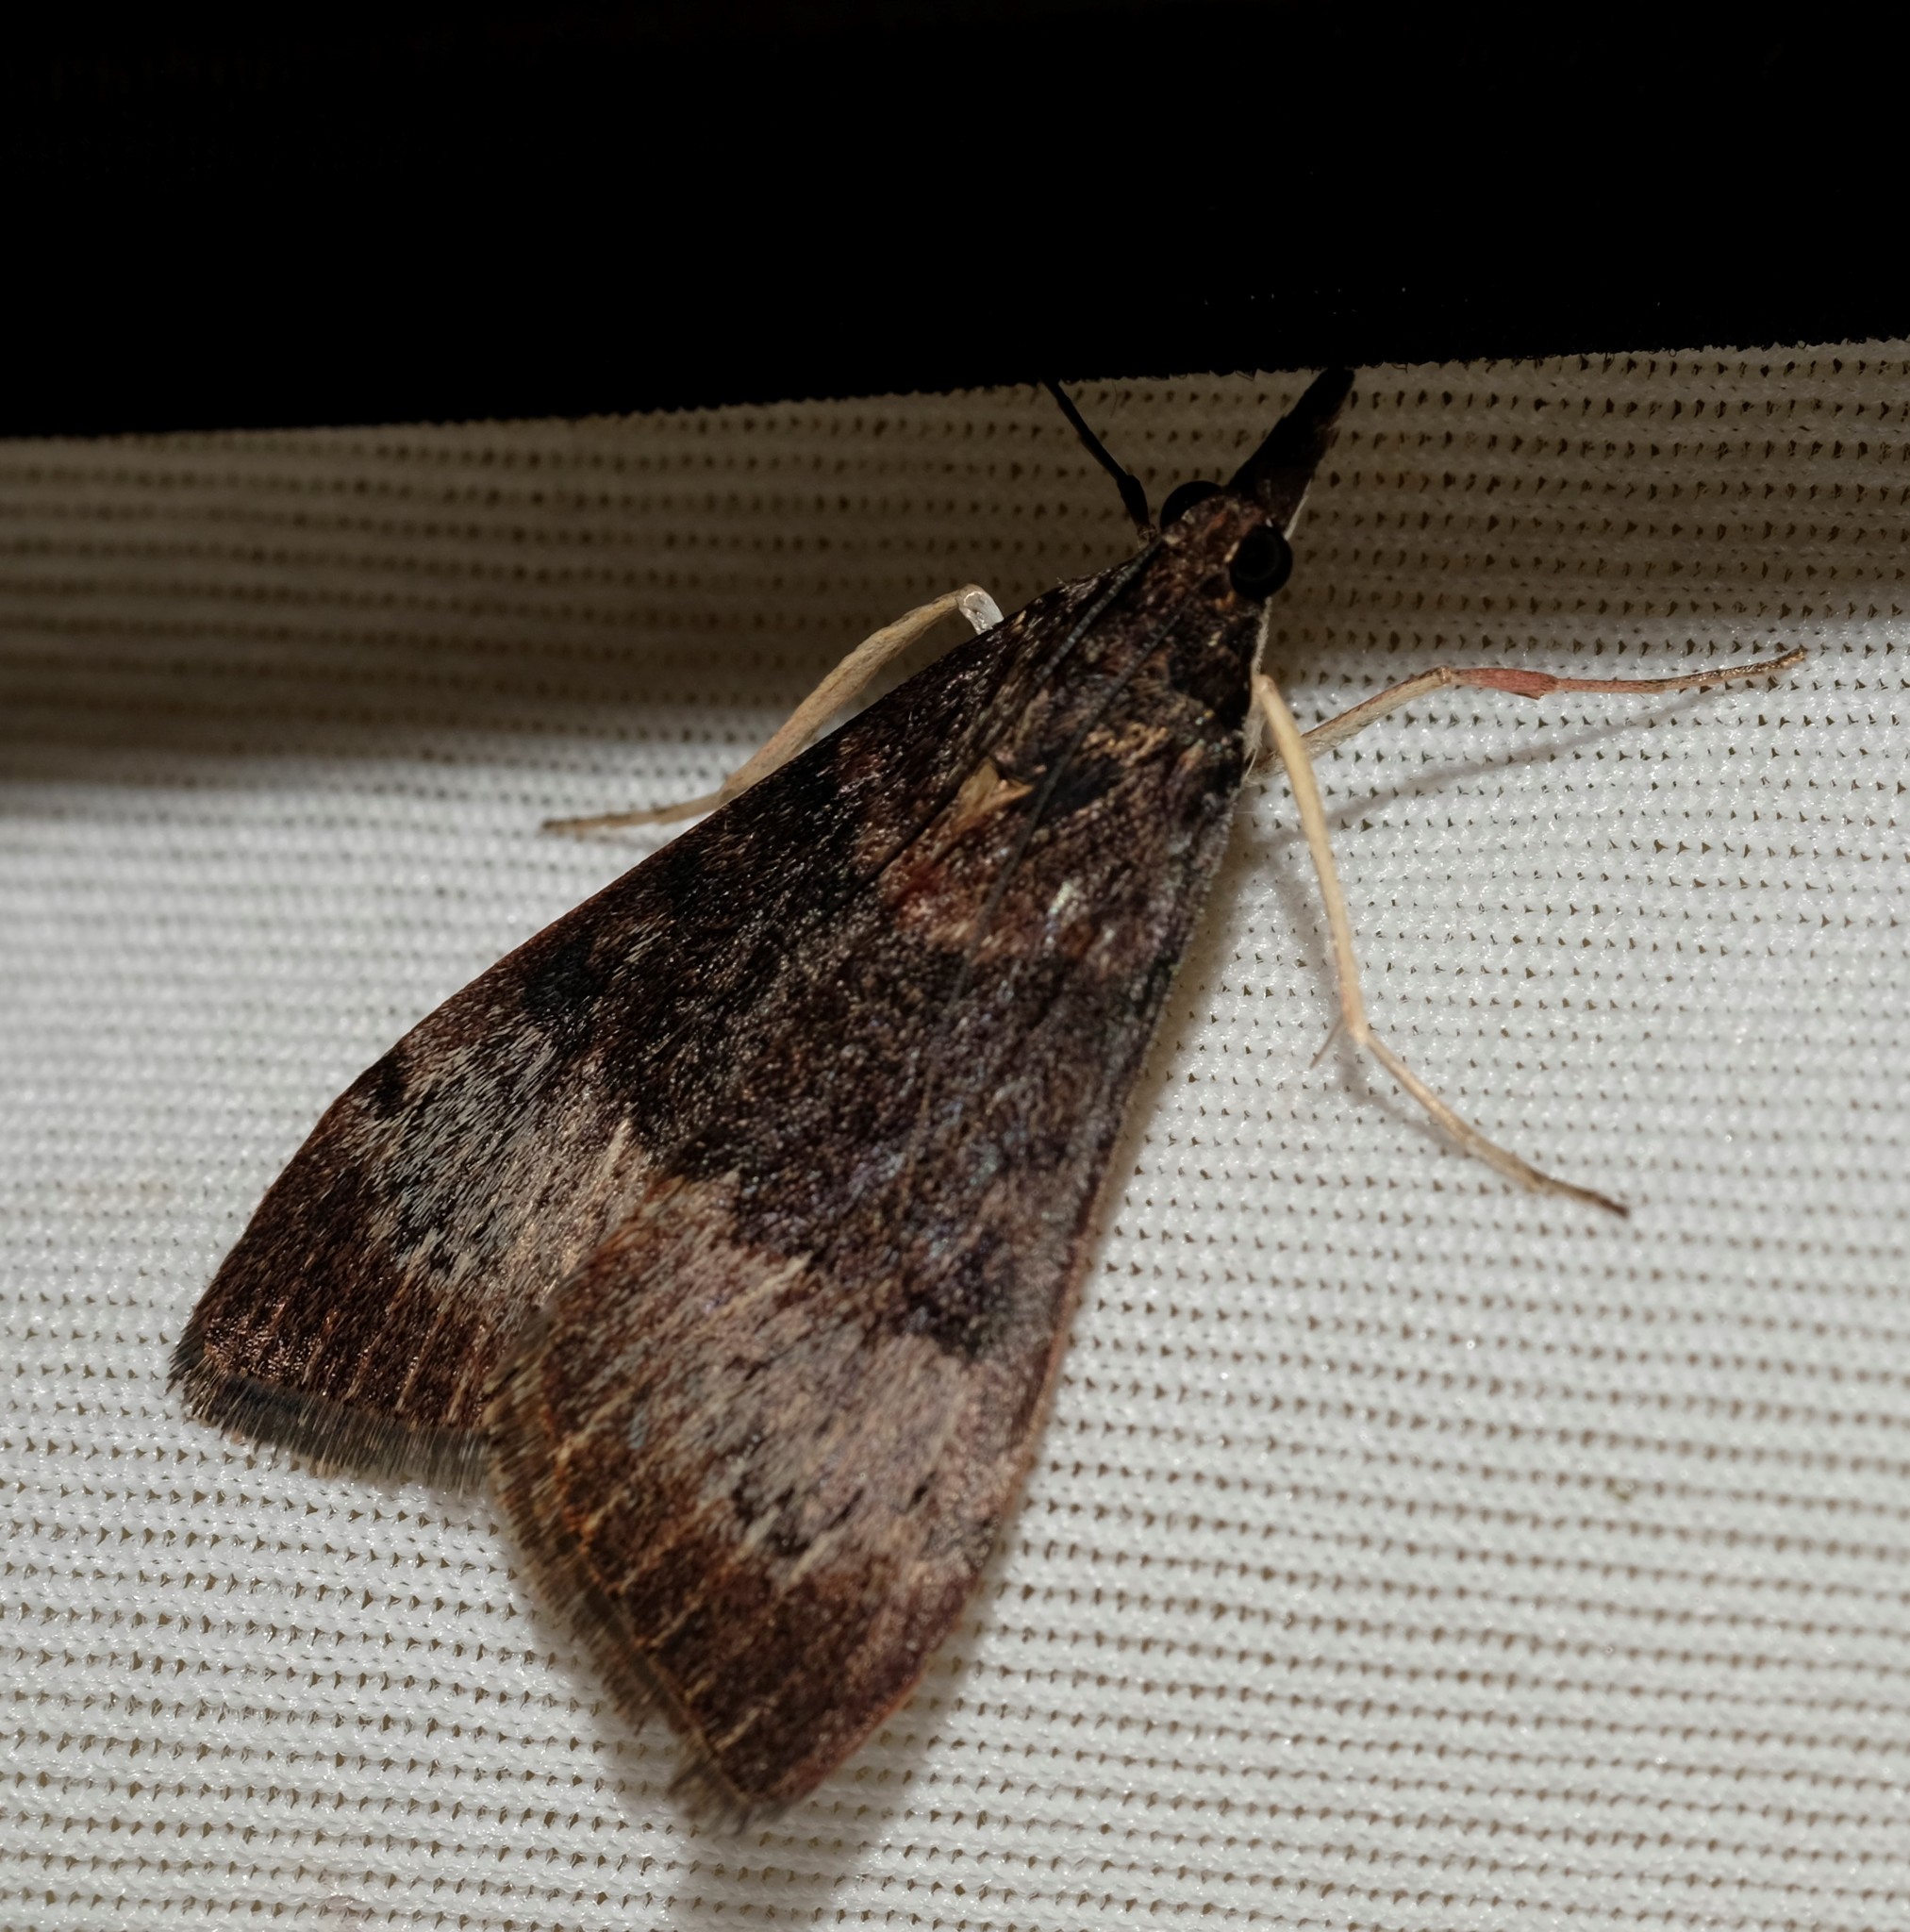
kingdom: Animalia
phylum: Arthropoda
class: Insecta
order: Lepidoptera
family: Crambidae
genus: Uresiphita
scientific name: Uresiphita ornithopteralis
